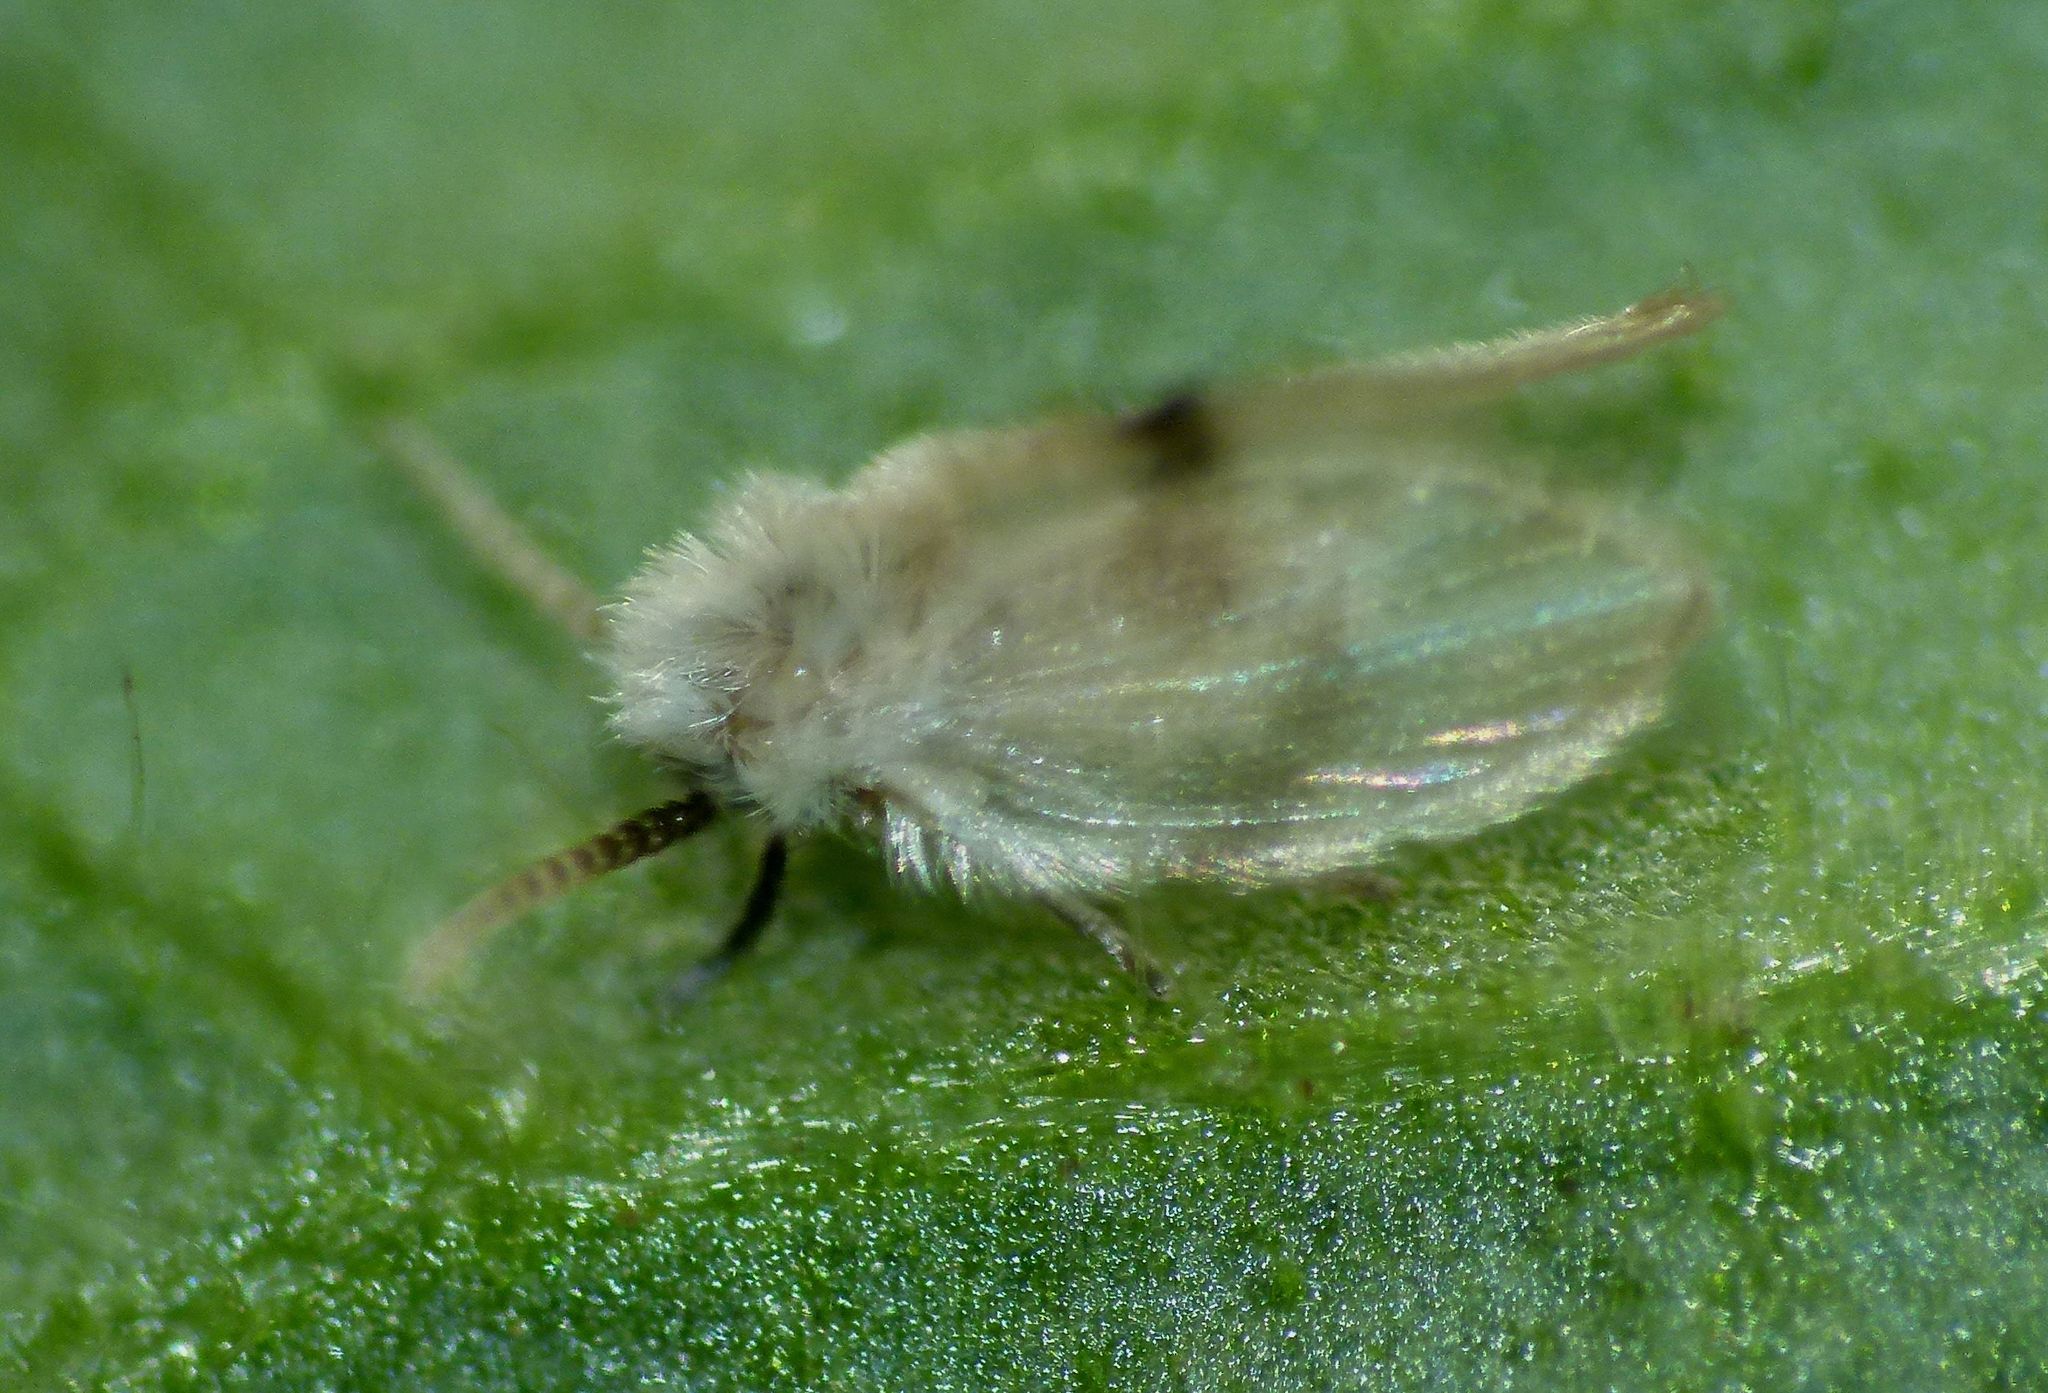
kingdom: Animalia
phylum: Arthropoda
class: Insecta
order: Diptera
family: Psychodidae
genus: Psychoda
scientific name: Psychoda sigma
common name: Moth fly
